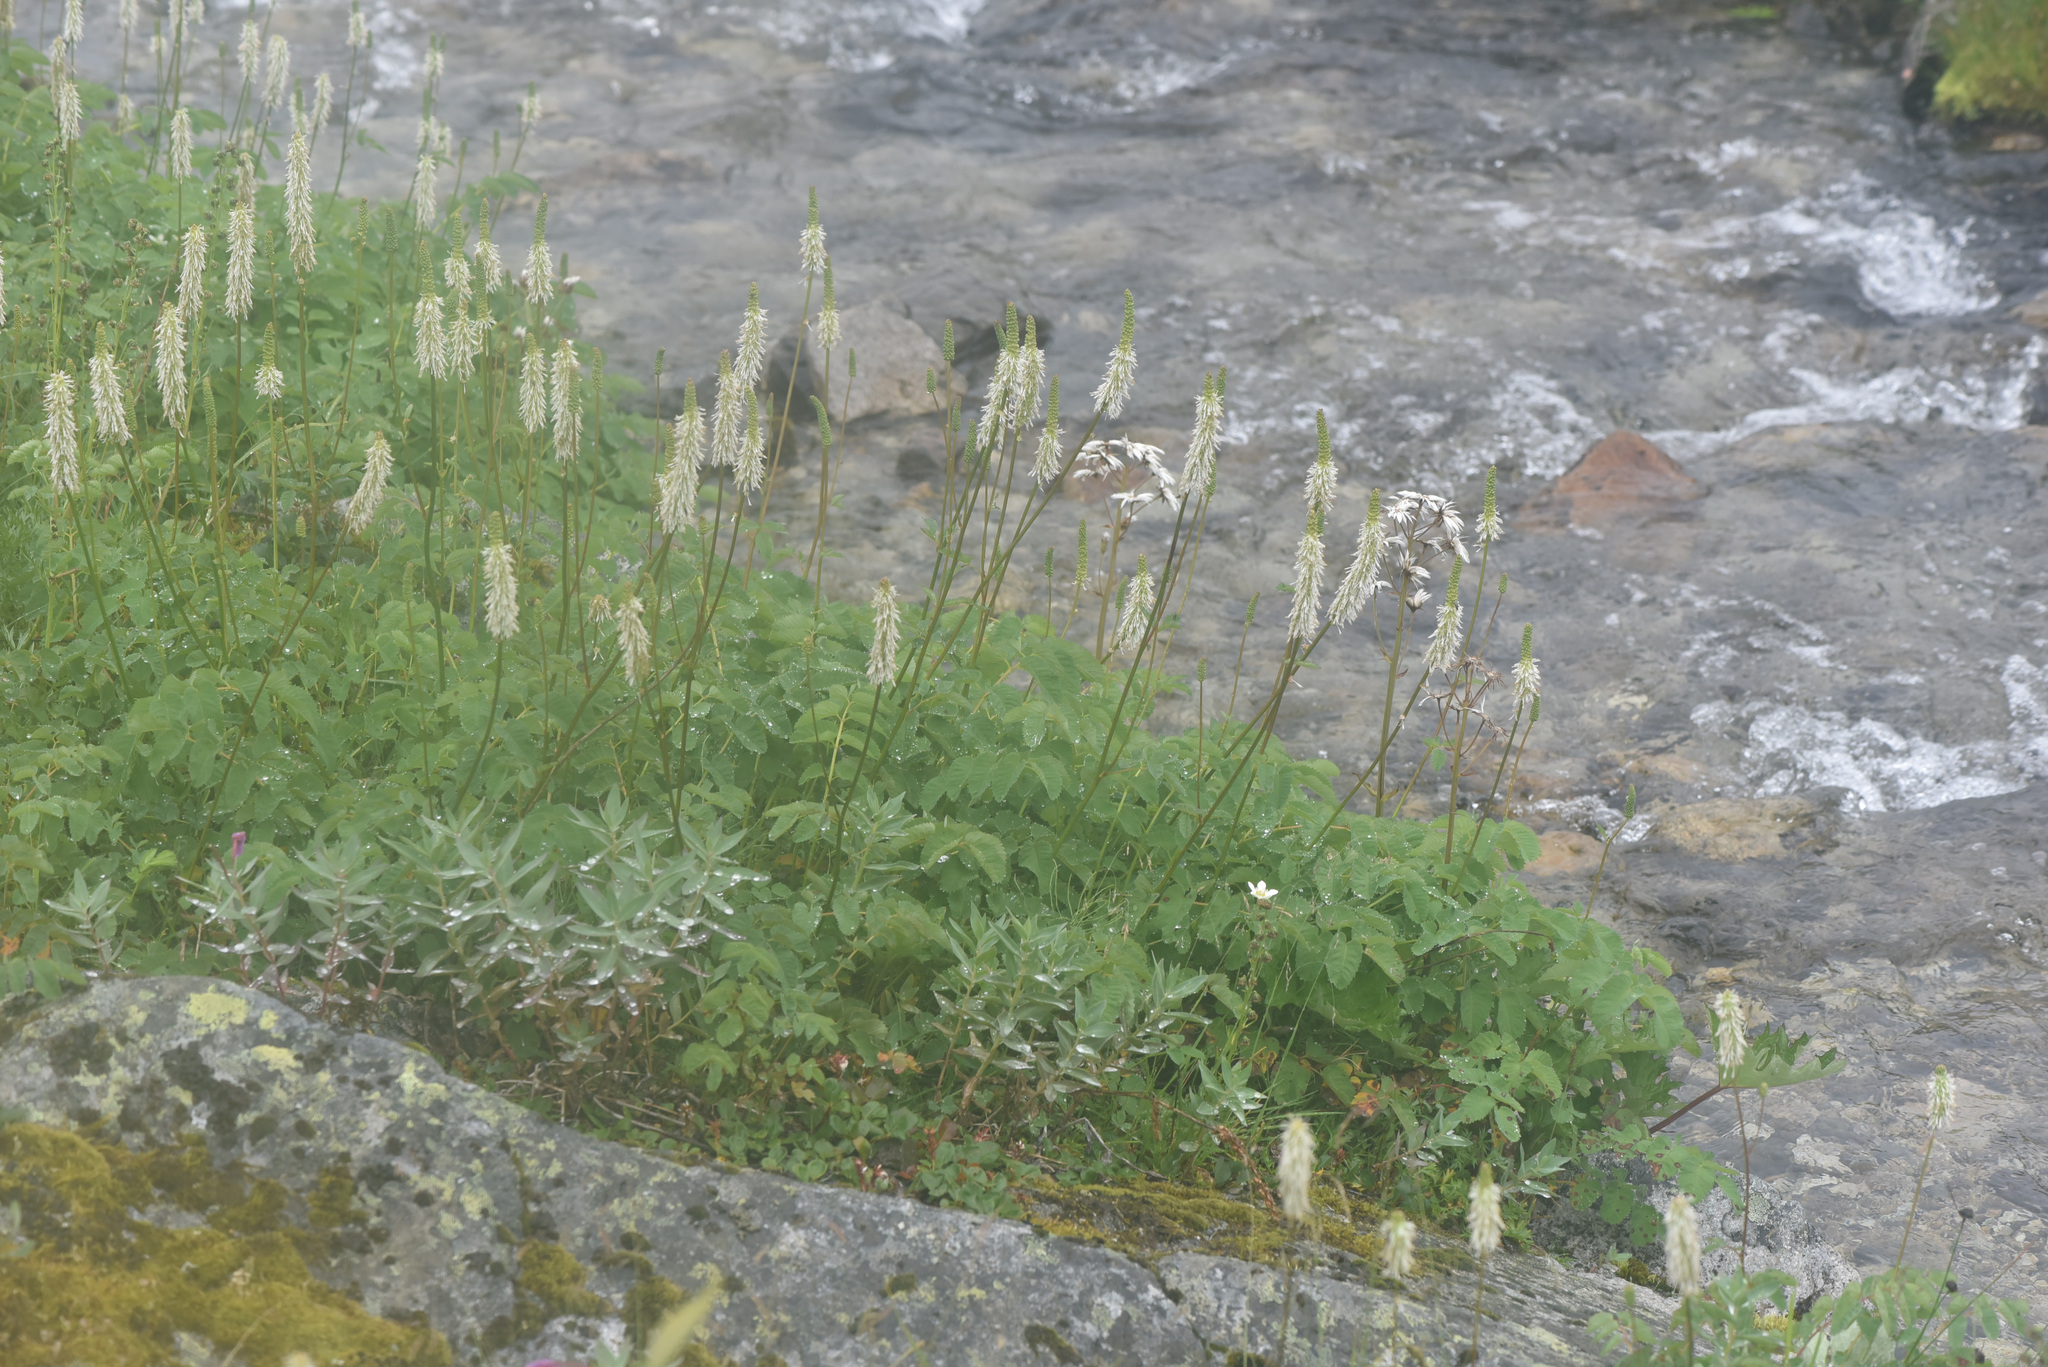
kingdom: Plantae
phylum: Tracheophyta
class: Magnoliopsida
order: Rosales
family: Rosaceae
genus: Sanguisorba
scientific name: Sanguisorba stipulata
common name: Sitka burnet
